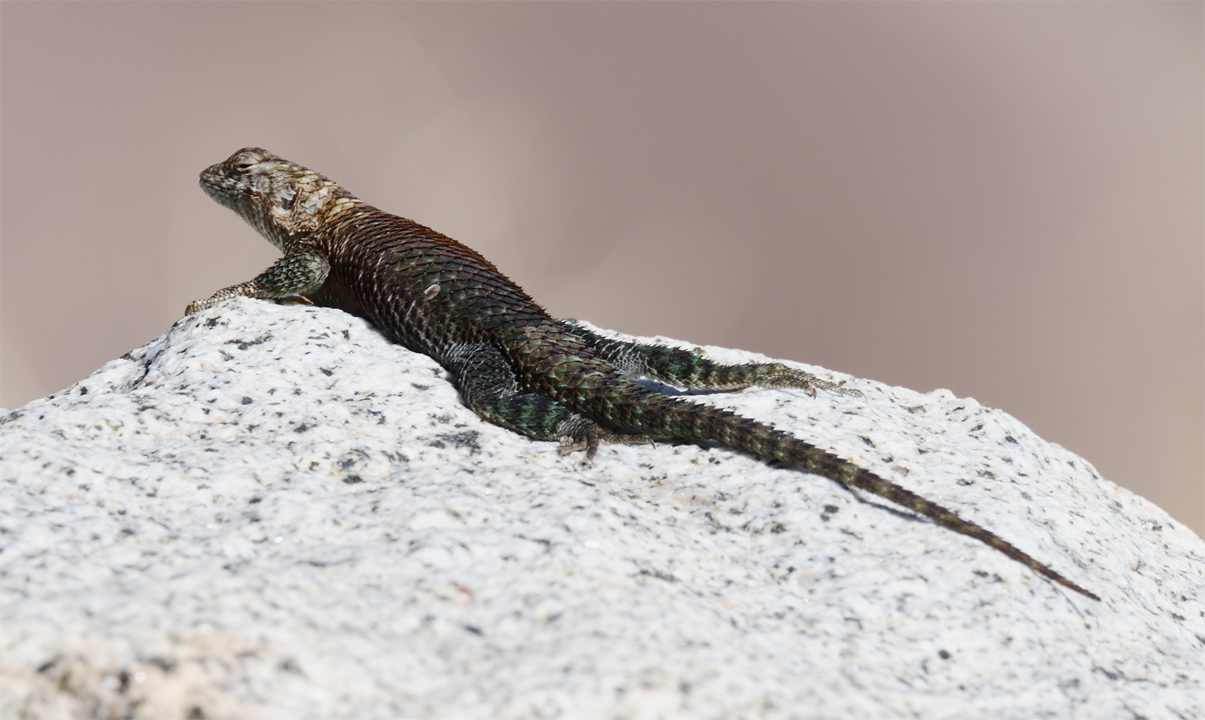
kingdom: Animalia
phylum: Chordata
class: Squamata
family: Phrynosomatidae
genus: Sceloporus
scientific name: Sceloporus orcutti
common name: Granite spiny lizard
